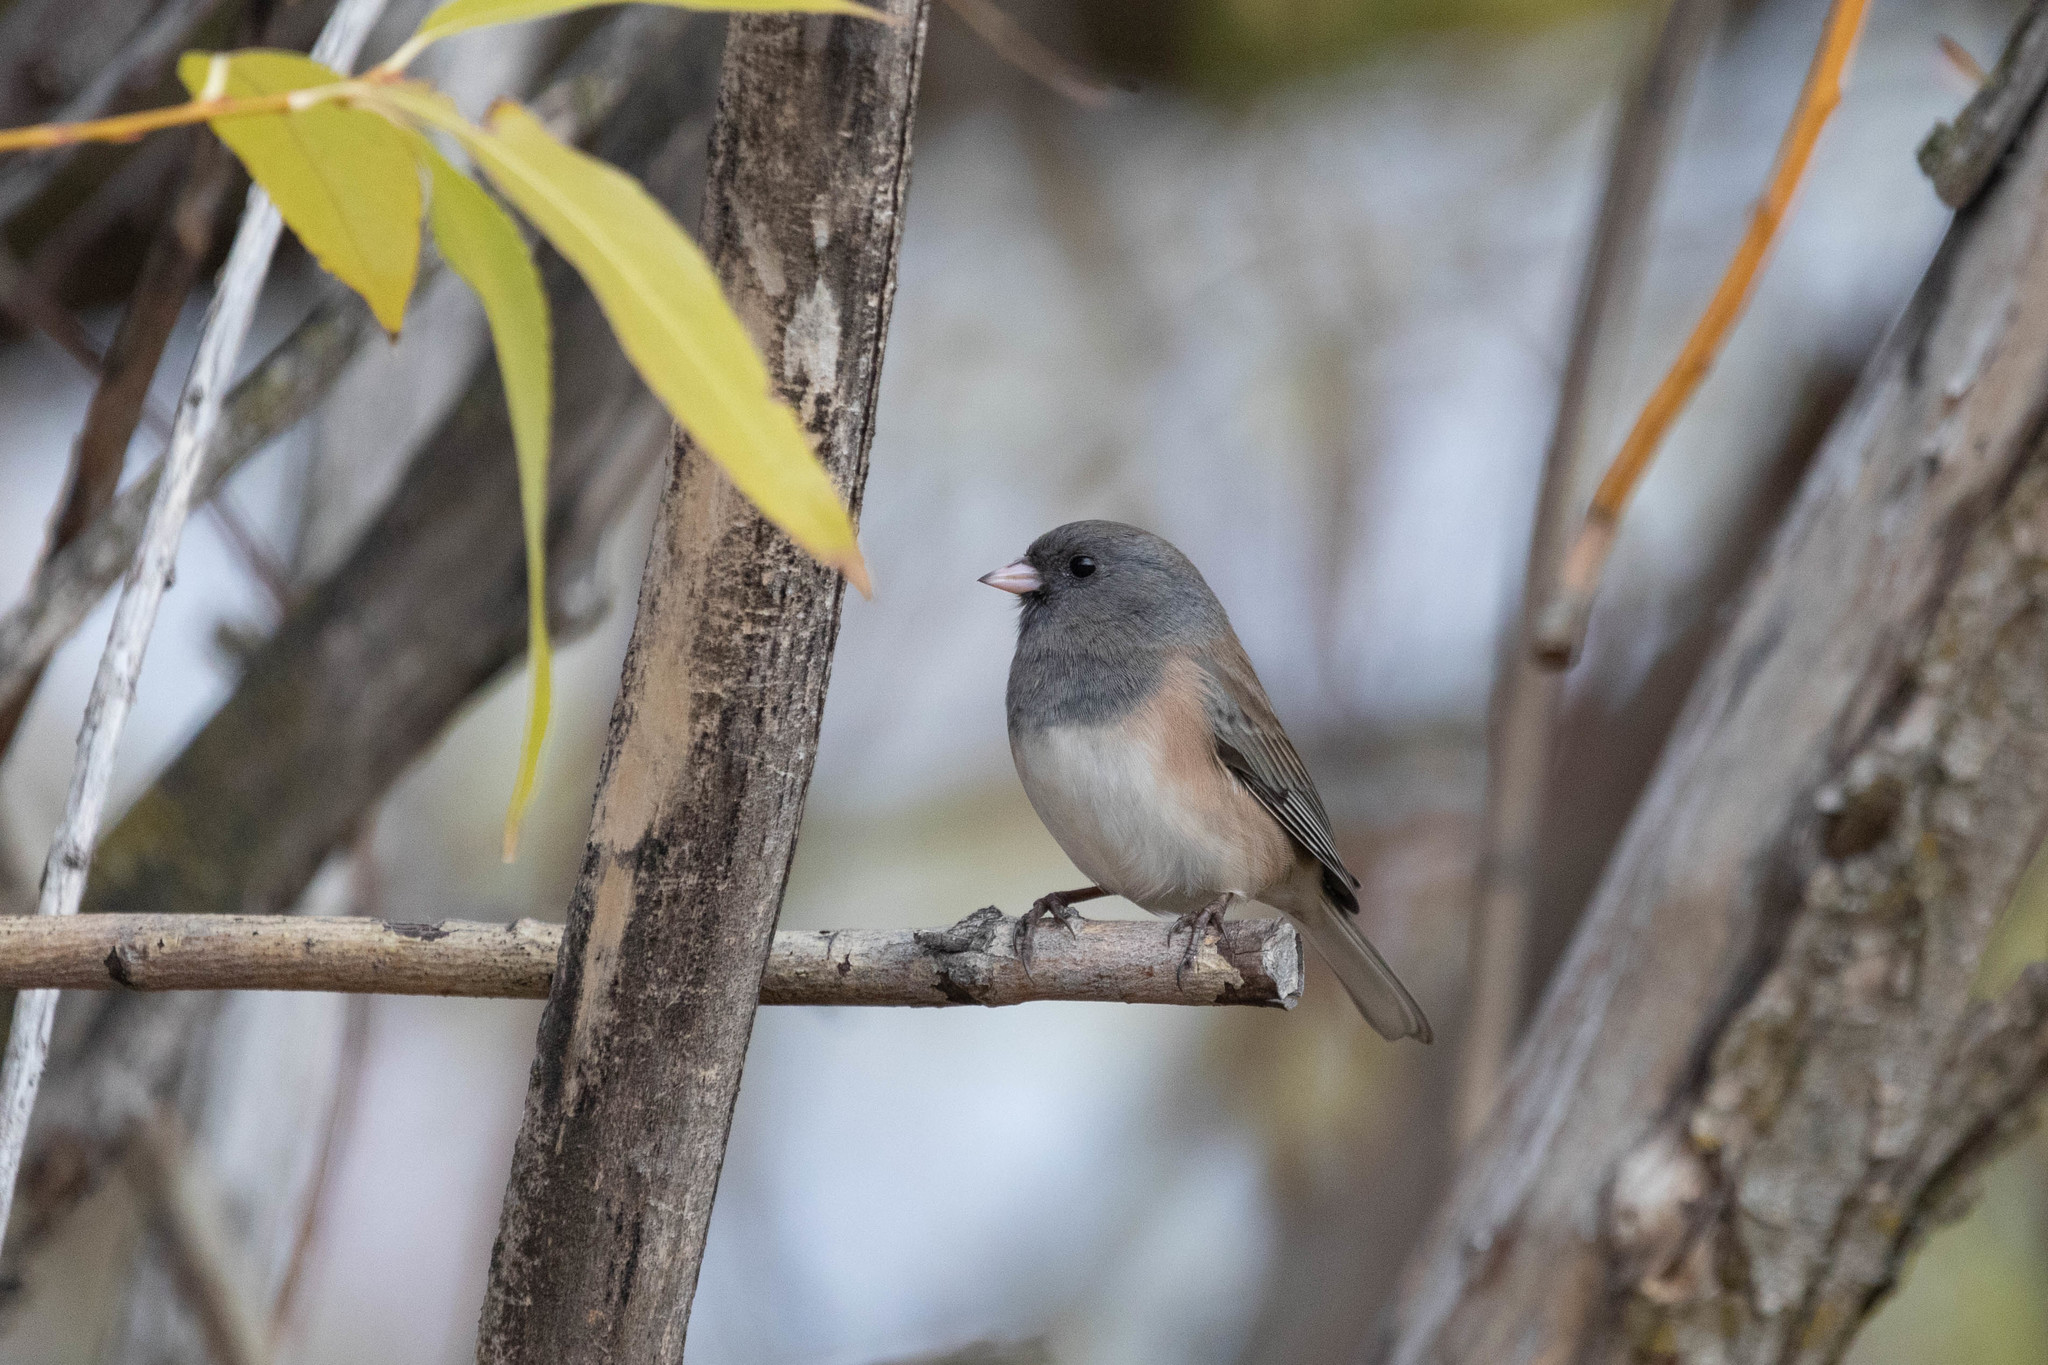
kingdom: Animalia
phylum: Chordata
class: Aves
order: Passeriformes
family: Passerellidae
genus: Junco
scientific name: Junco hyemalis
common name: Dark-eyed junco
